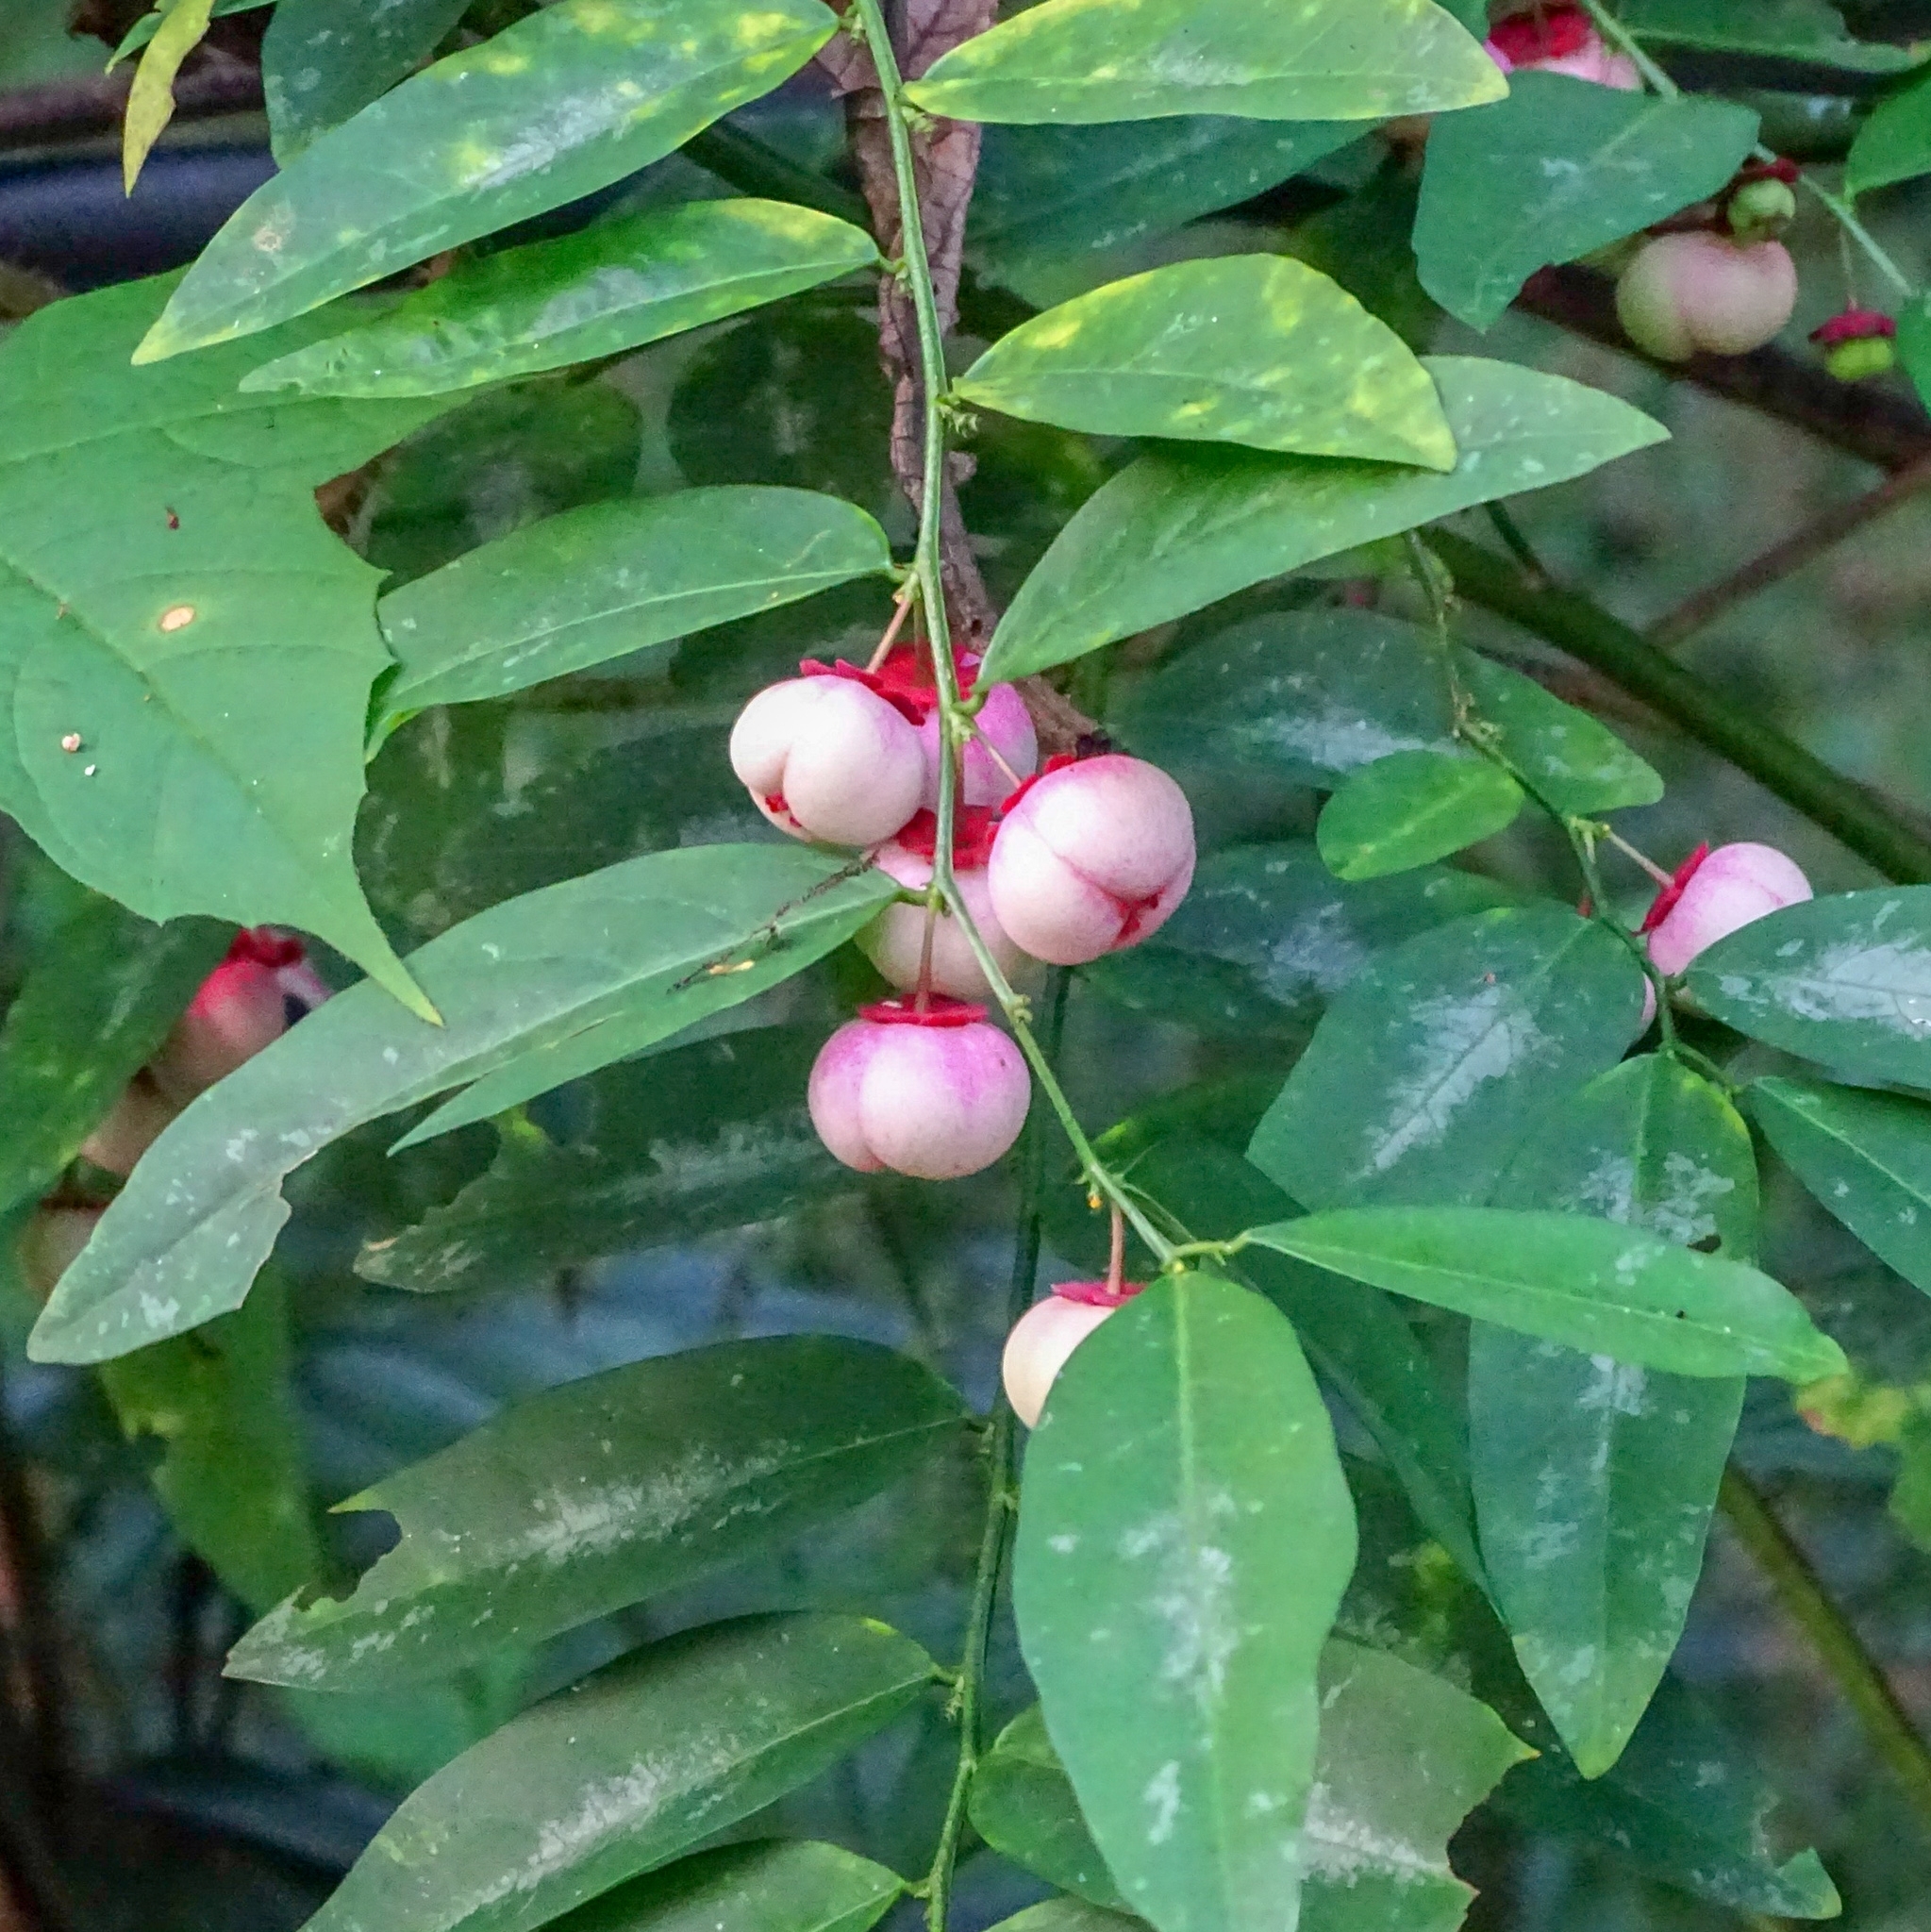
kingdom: Plantae
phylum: Tracheophyta
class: Magnoliopsida
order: Malpighiales
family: Phyllanthaceae
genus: Breynia
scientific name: Breynia androgyna
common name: Star gooseberry
